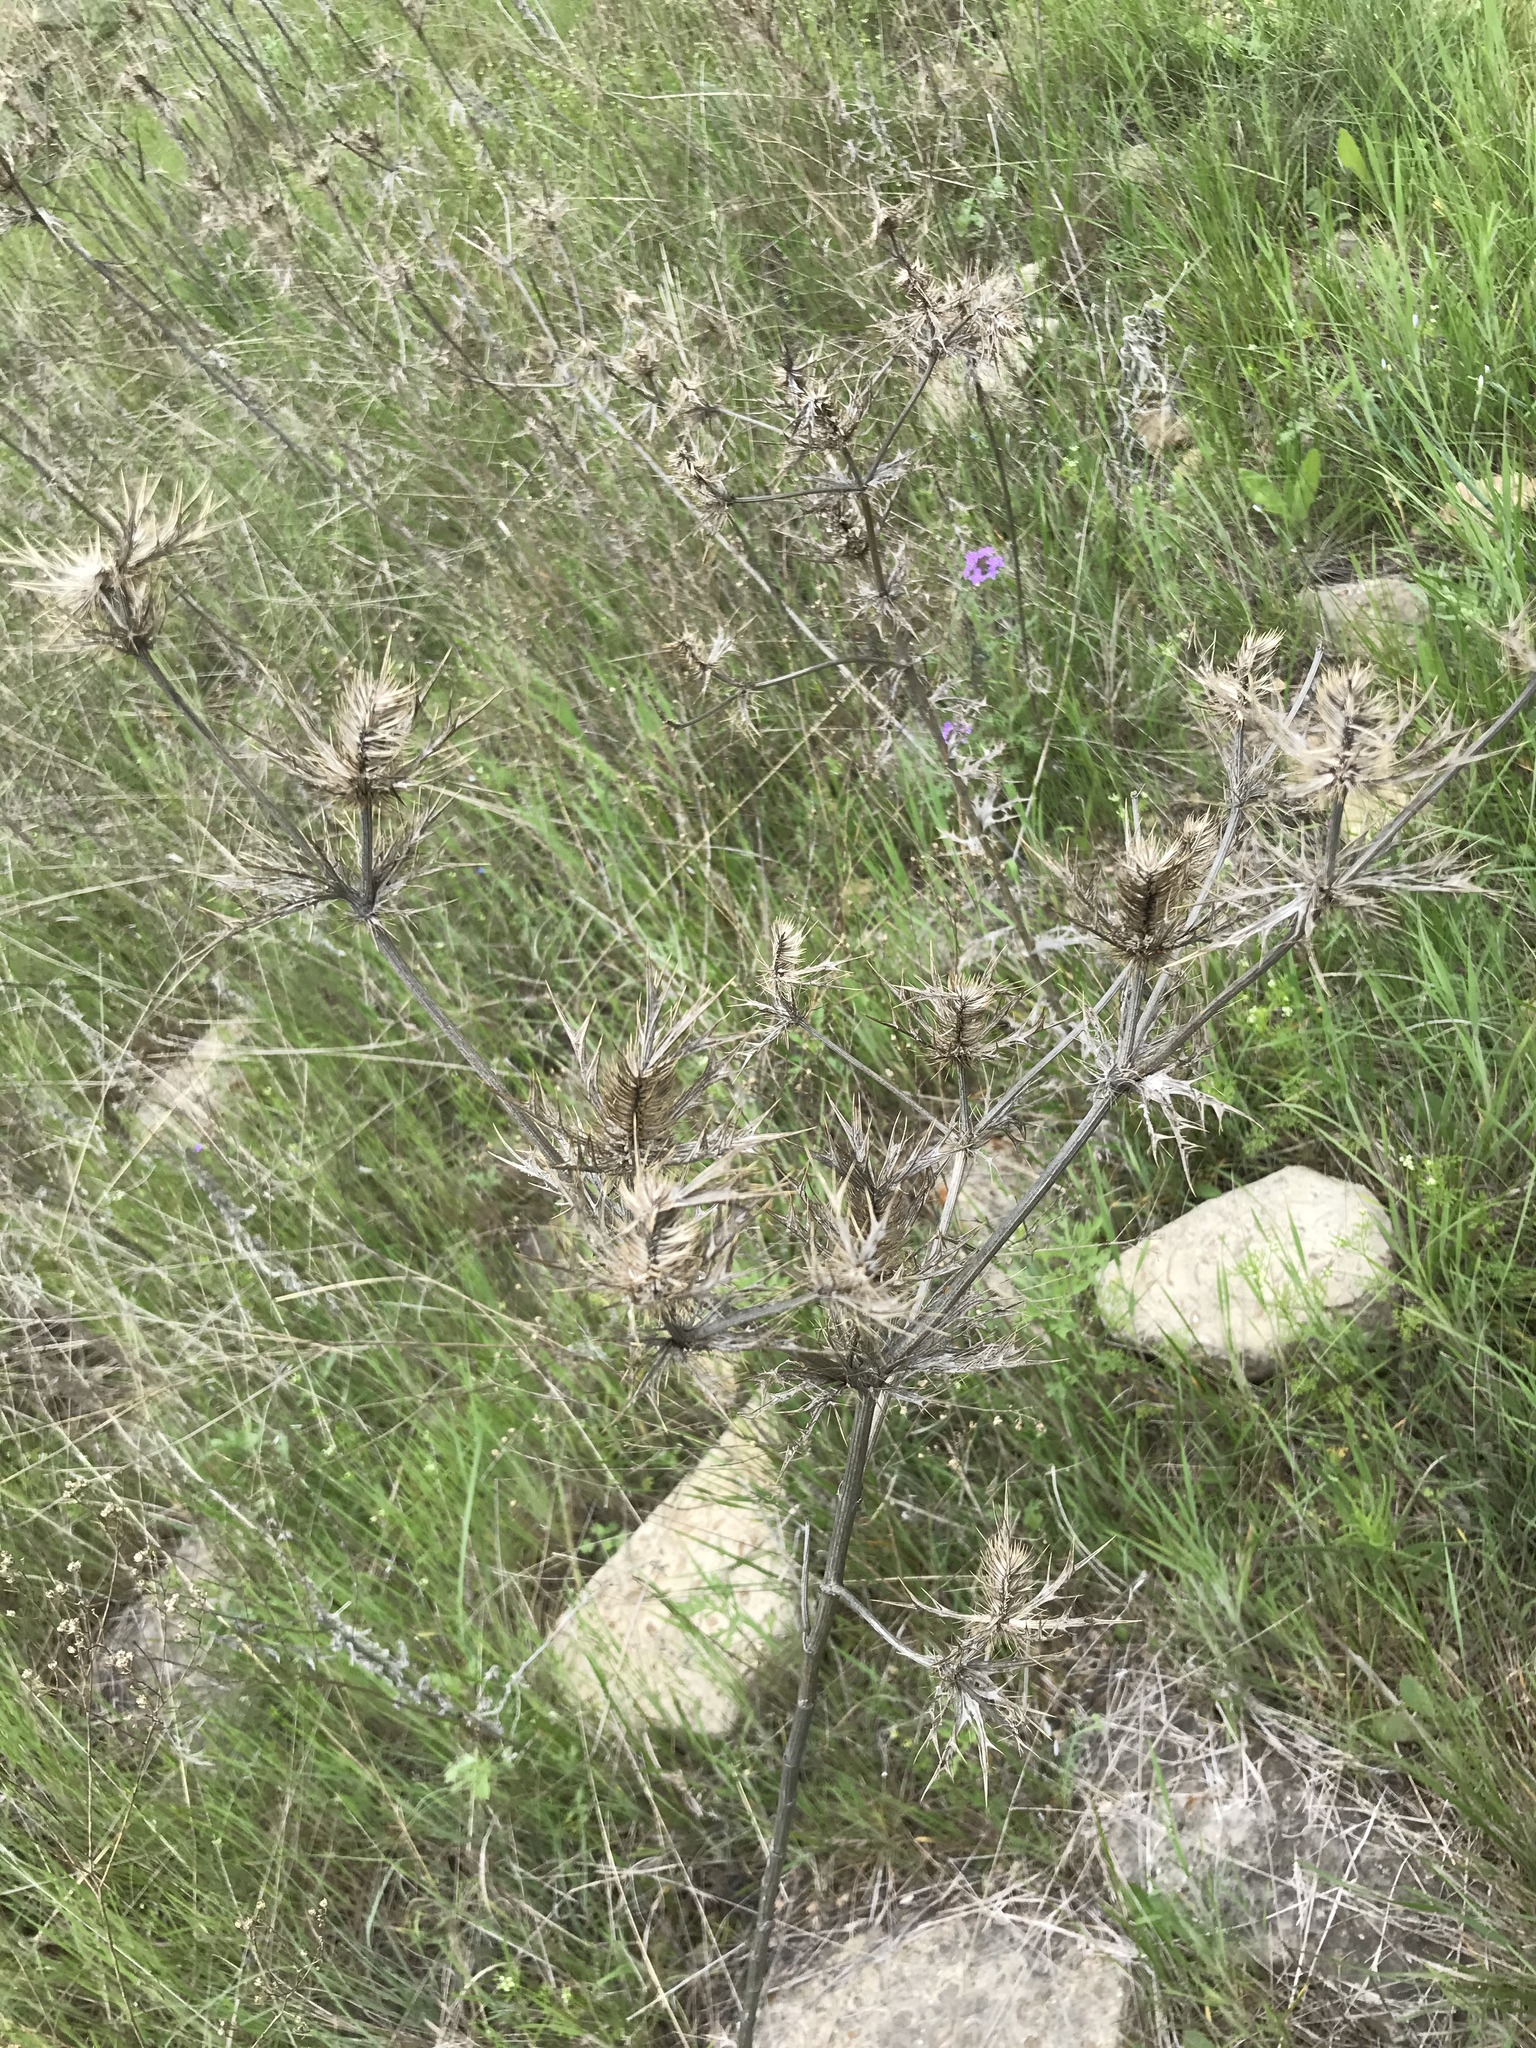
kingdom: Plantae
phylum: Tracheophyta
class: Magnoliopsida
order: Apiales
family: Apiaceae
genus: Eryngium
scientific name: Eryngium leavenworthii
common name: Leavenworth's eryngo
